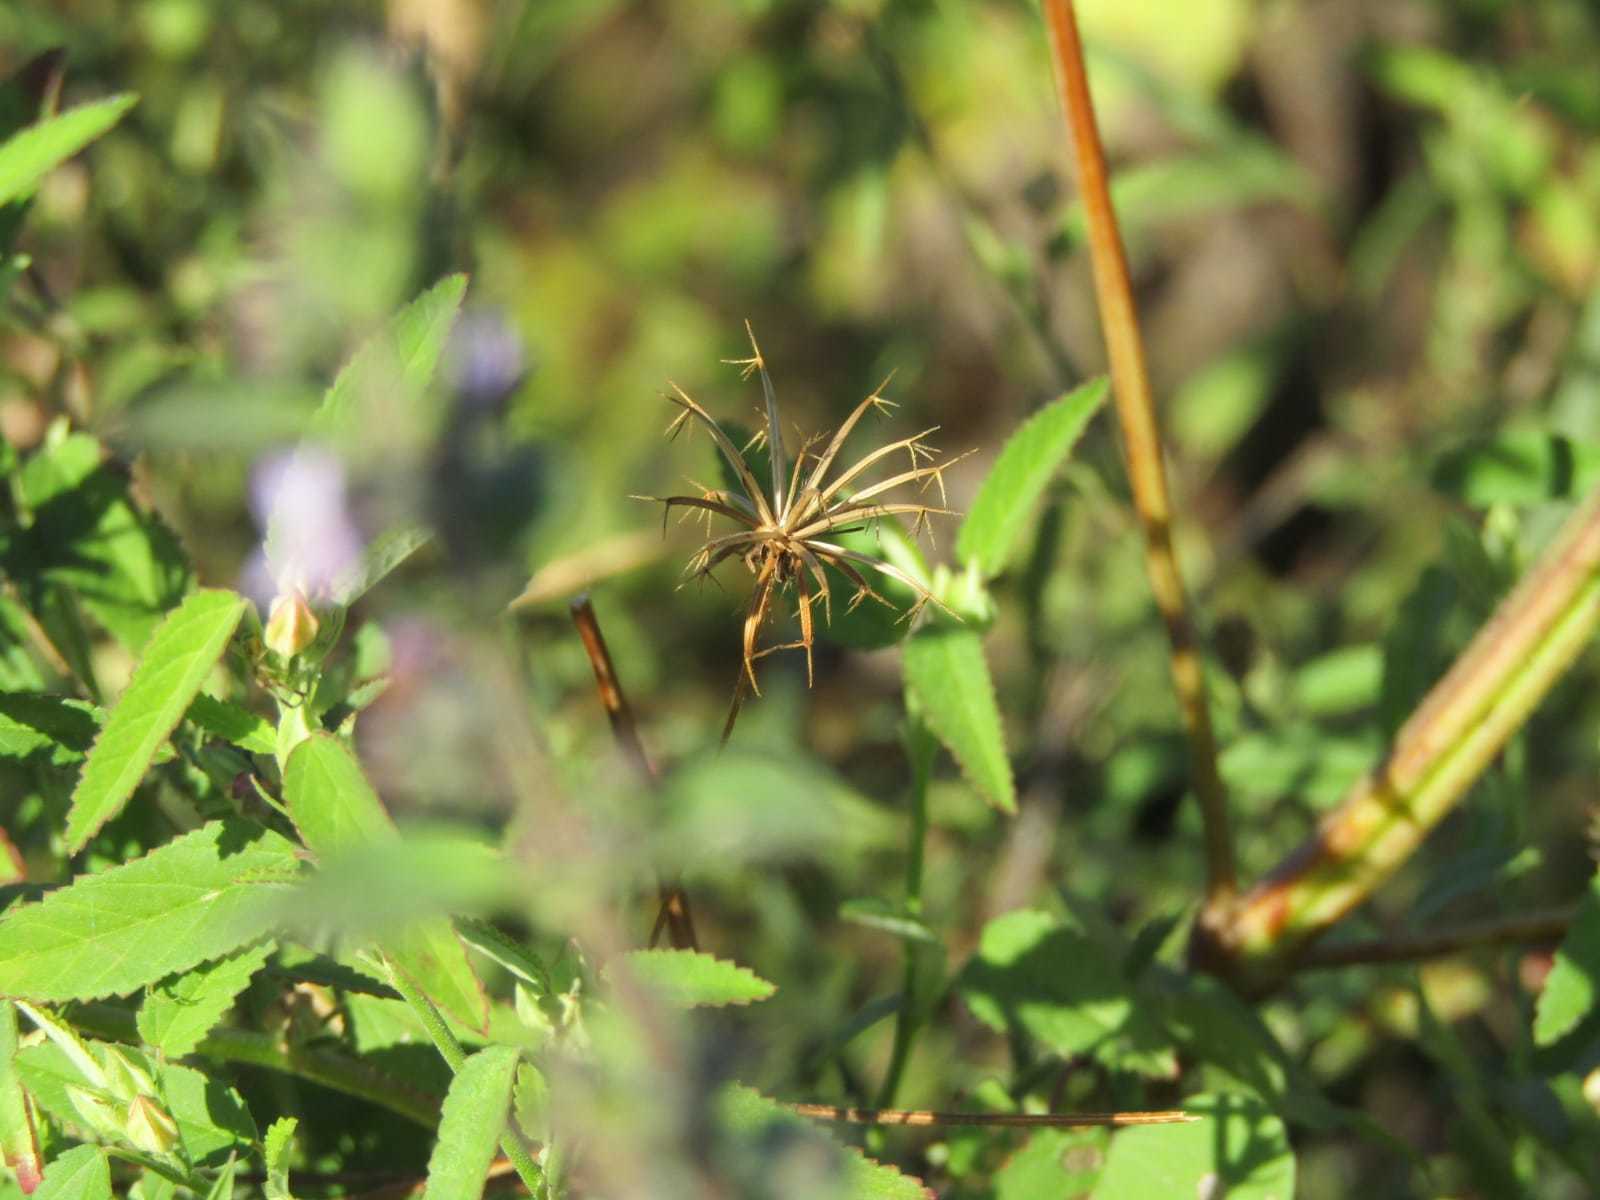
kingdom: Plantae
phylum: Tracheophyta
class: Magnoliopsida
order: Asterales
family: Asteraceae
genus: Bidens
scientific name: Bidens riparia
